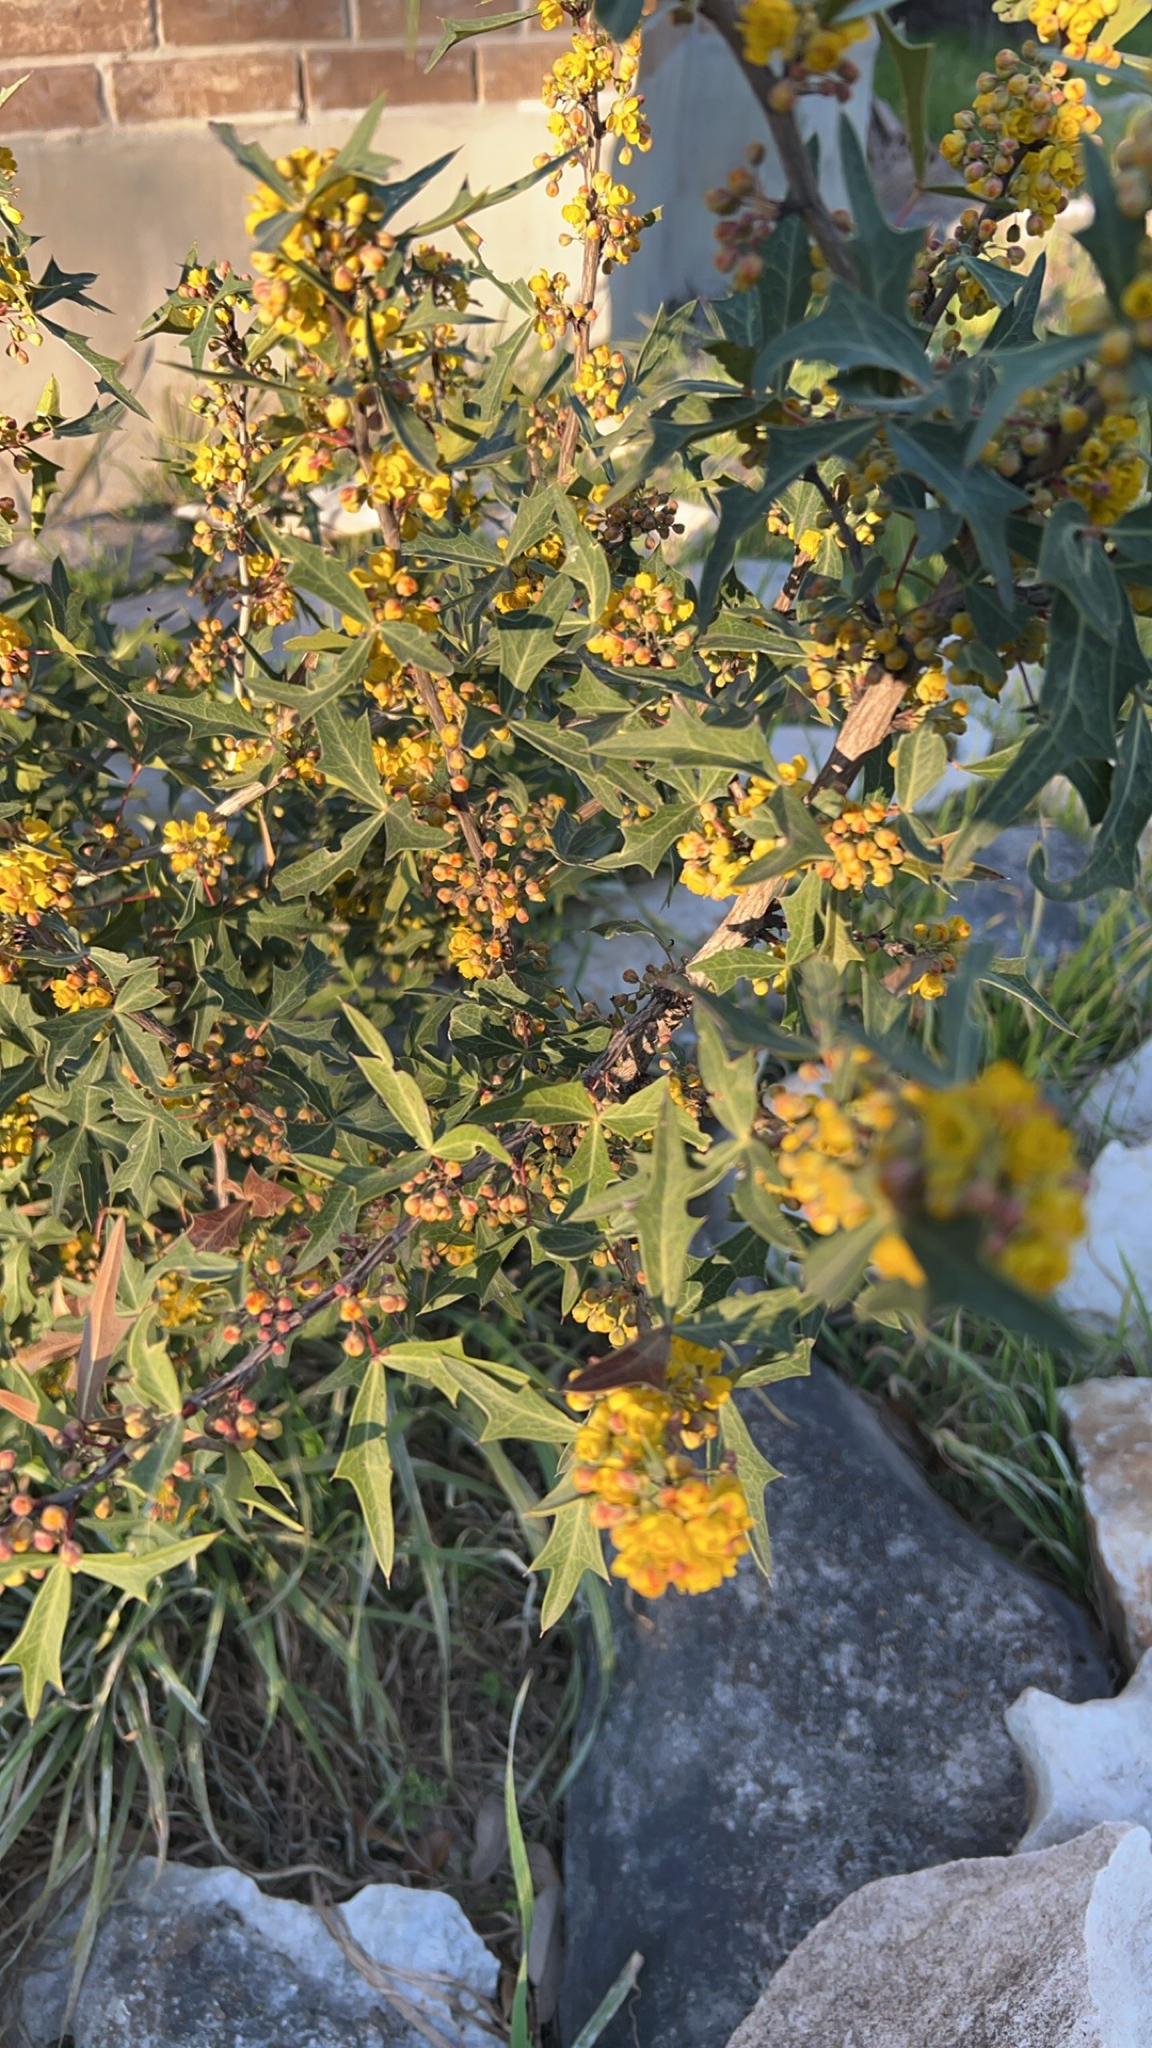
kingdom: Plantae
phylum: Tracheophyta
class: Magnoliopsida
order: Ranunculales
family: Berberidaceae
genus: Alloberberis
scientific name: Alloberberis trifoliolata
